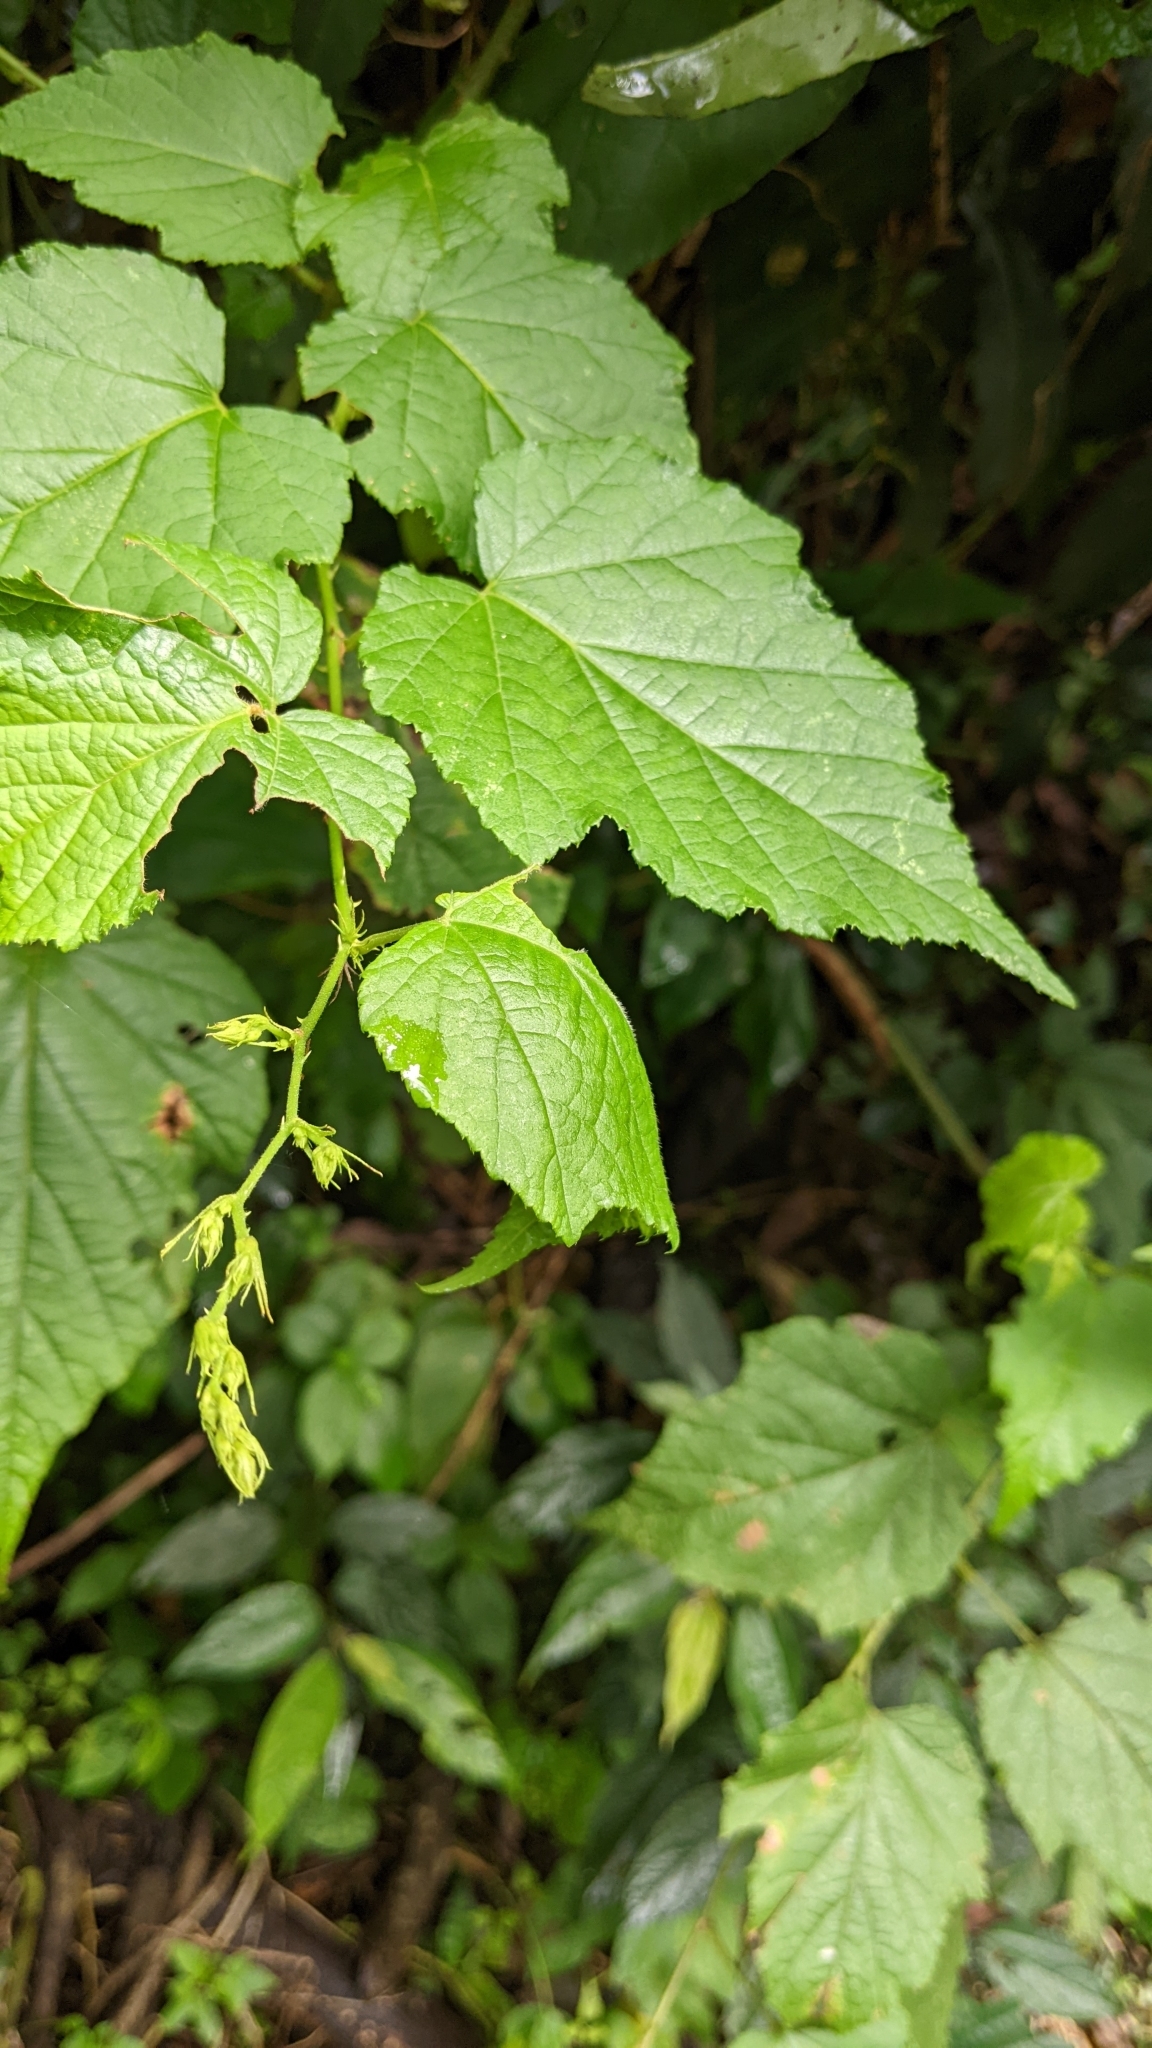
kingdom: Plantae
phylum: Tracheophyta
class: Magnoliopsida
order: Rosales
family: Rosaceae
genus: Rubus
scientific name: Rubus lambertianus
